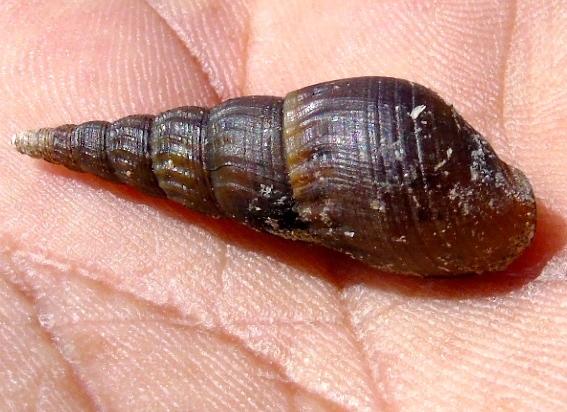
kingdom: Animalia
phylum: Mollusca
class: Gastropoda
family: Thiaridae
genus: Melanoides
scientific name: Melanoides tuberculata
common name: Red-rim melania
